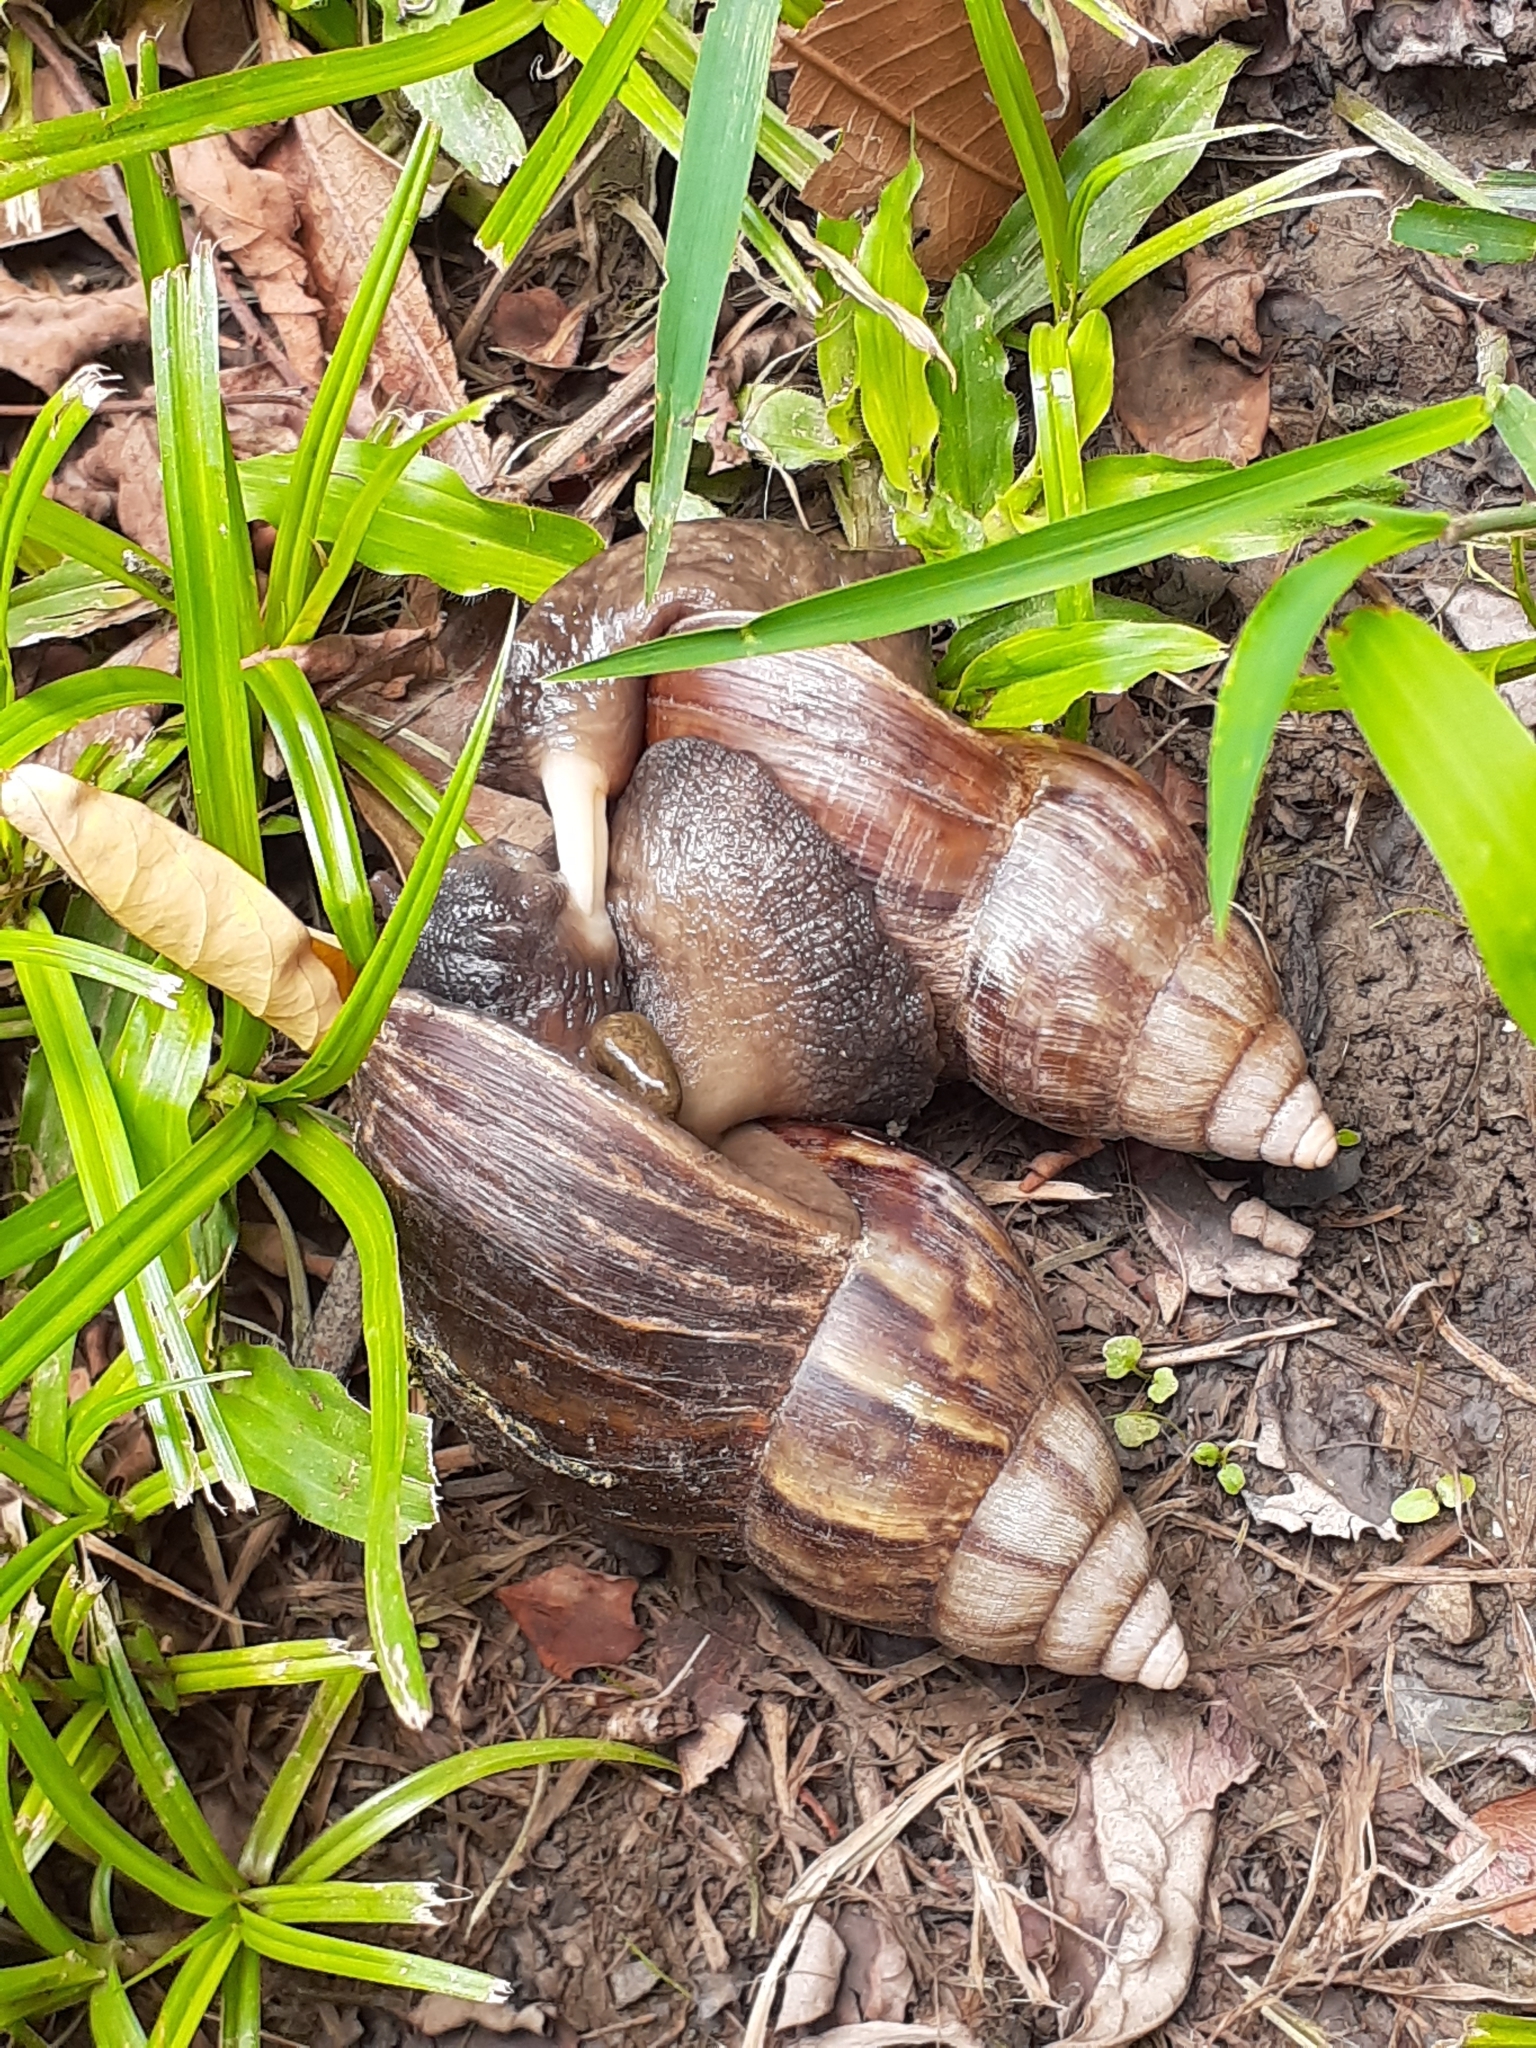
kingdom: Animalia
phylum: Mollusca
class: Gastropoda
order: Stylommatophora
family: Achatinidae
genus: Lissachatina
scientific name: Lissachatina fulica
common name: Giant african snail
